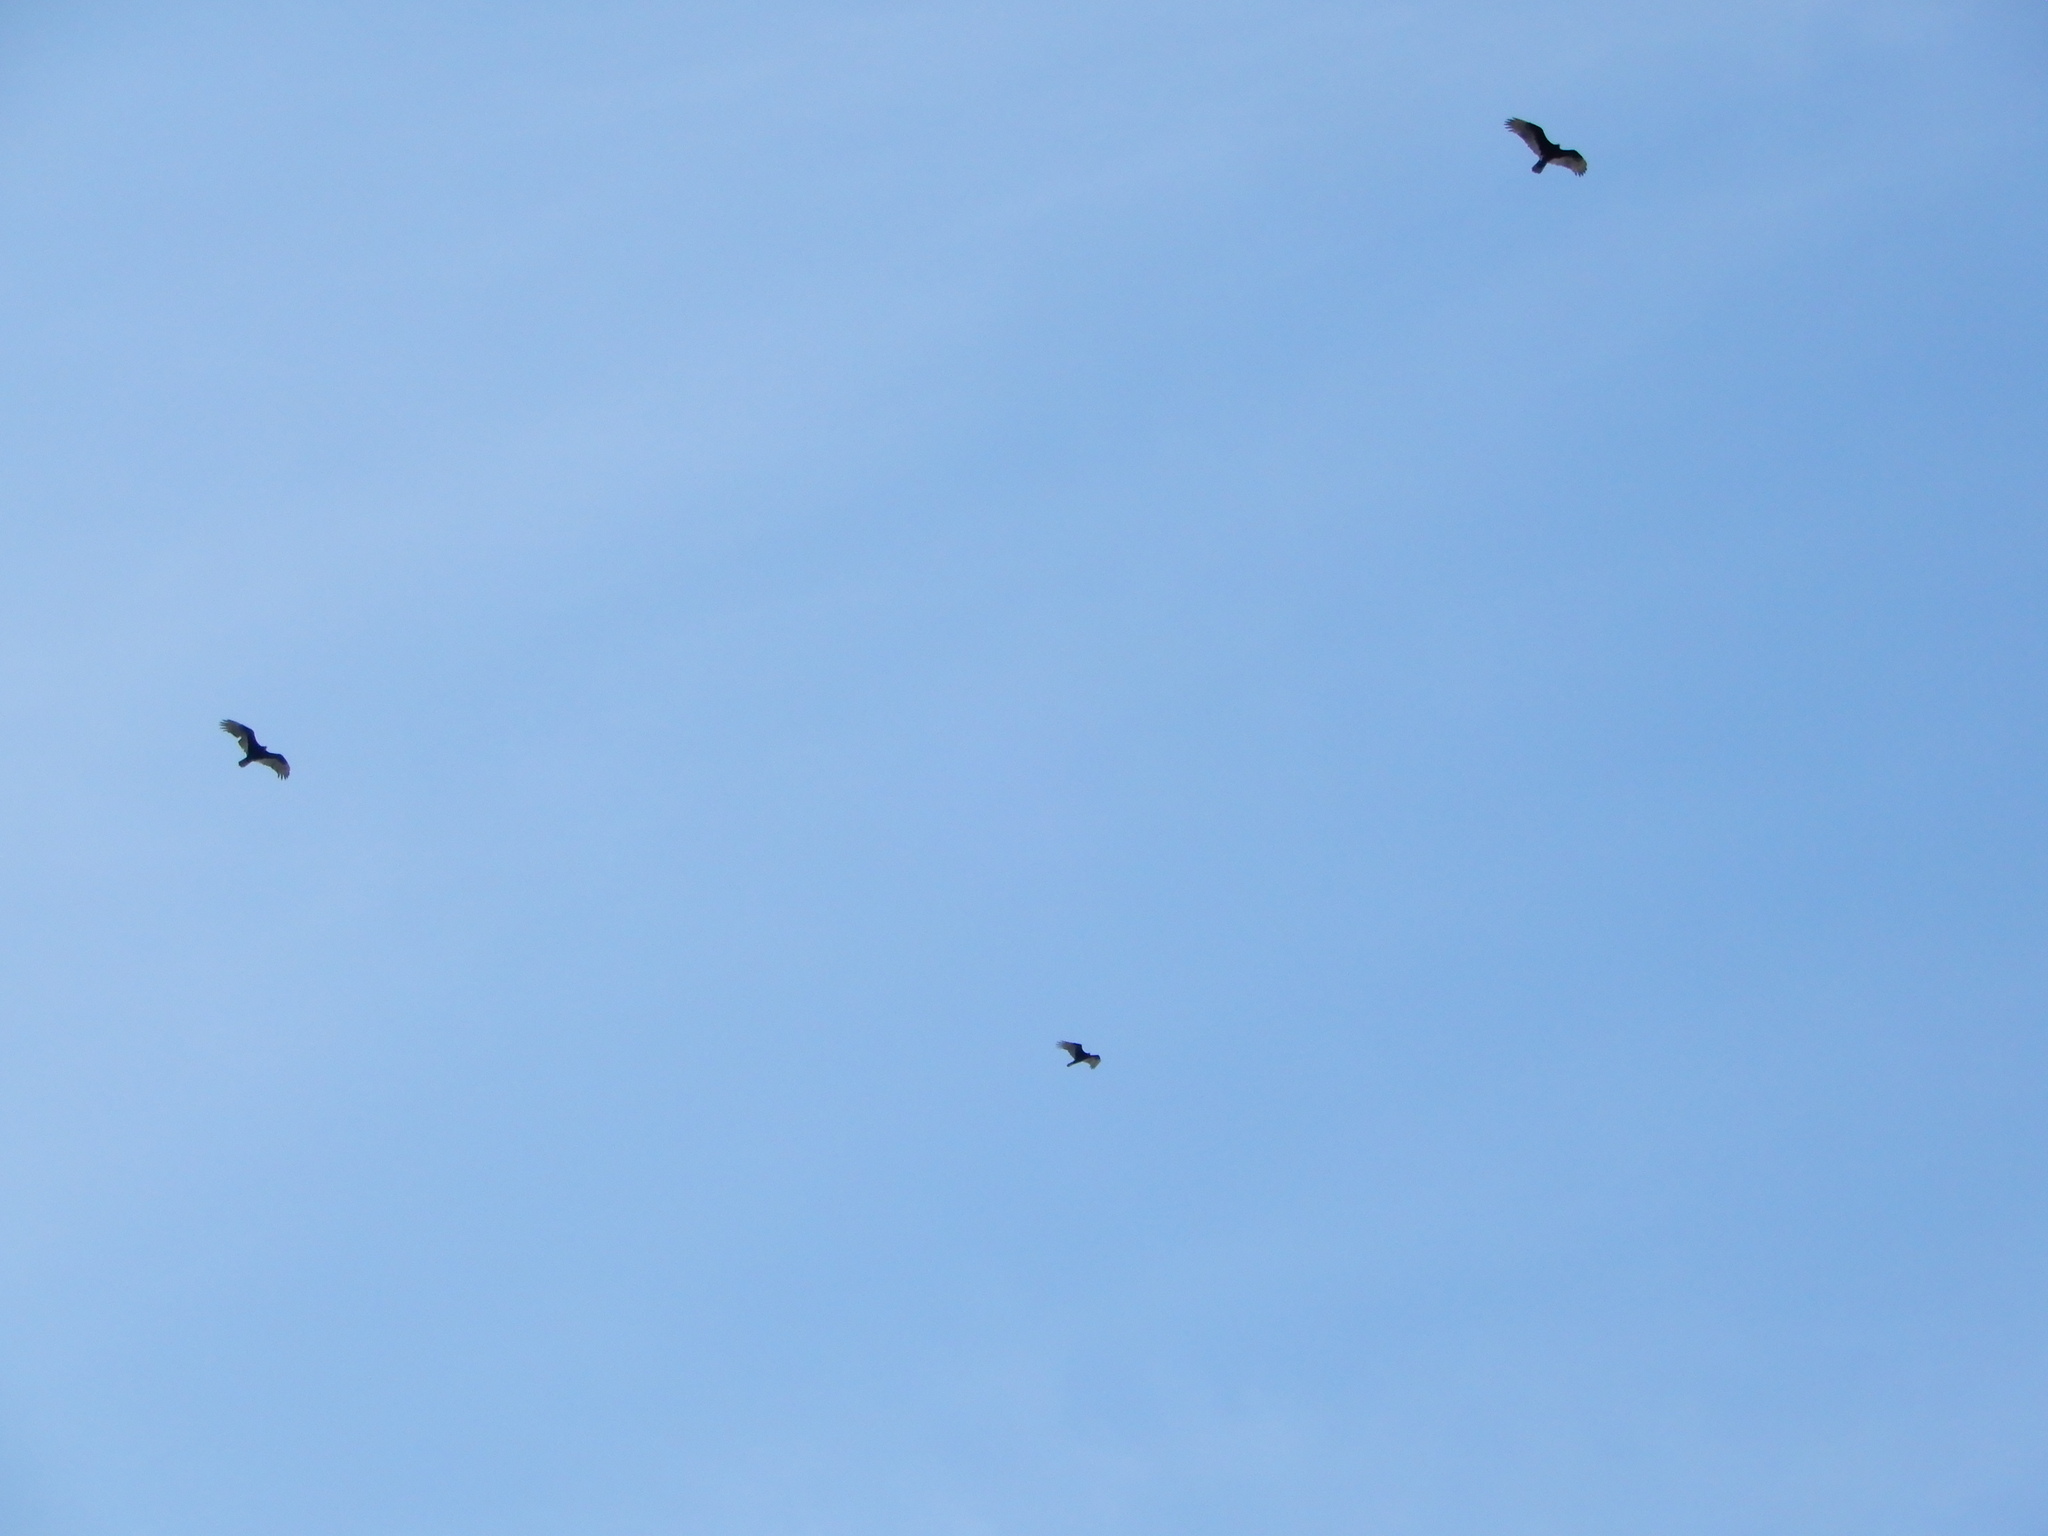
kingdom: Animalia
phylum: Chordata
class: Aves
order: Accipitriformes
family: Cathartidae
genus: Cathartes
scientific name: Cathartes aura
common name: Turkey vulture
